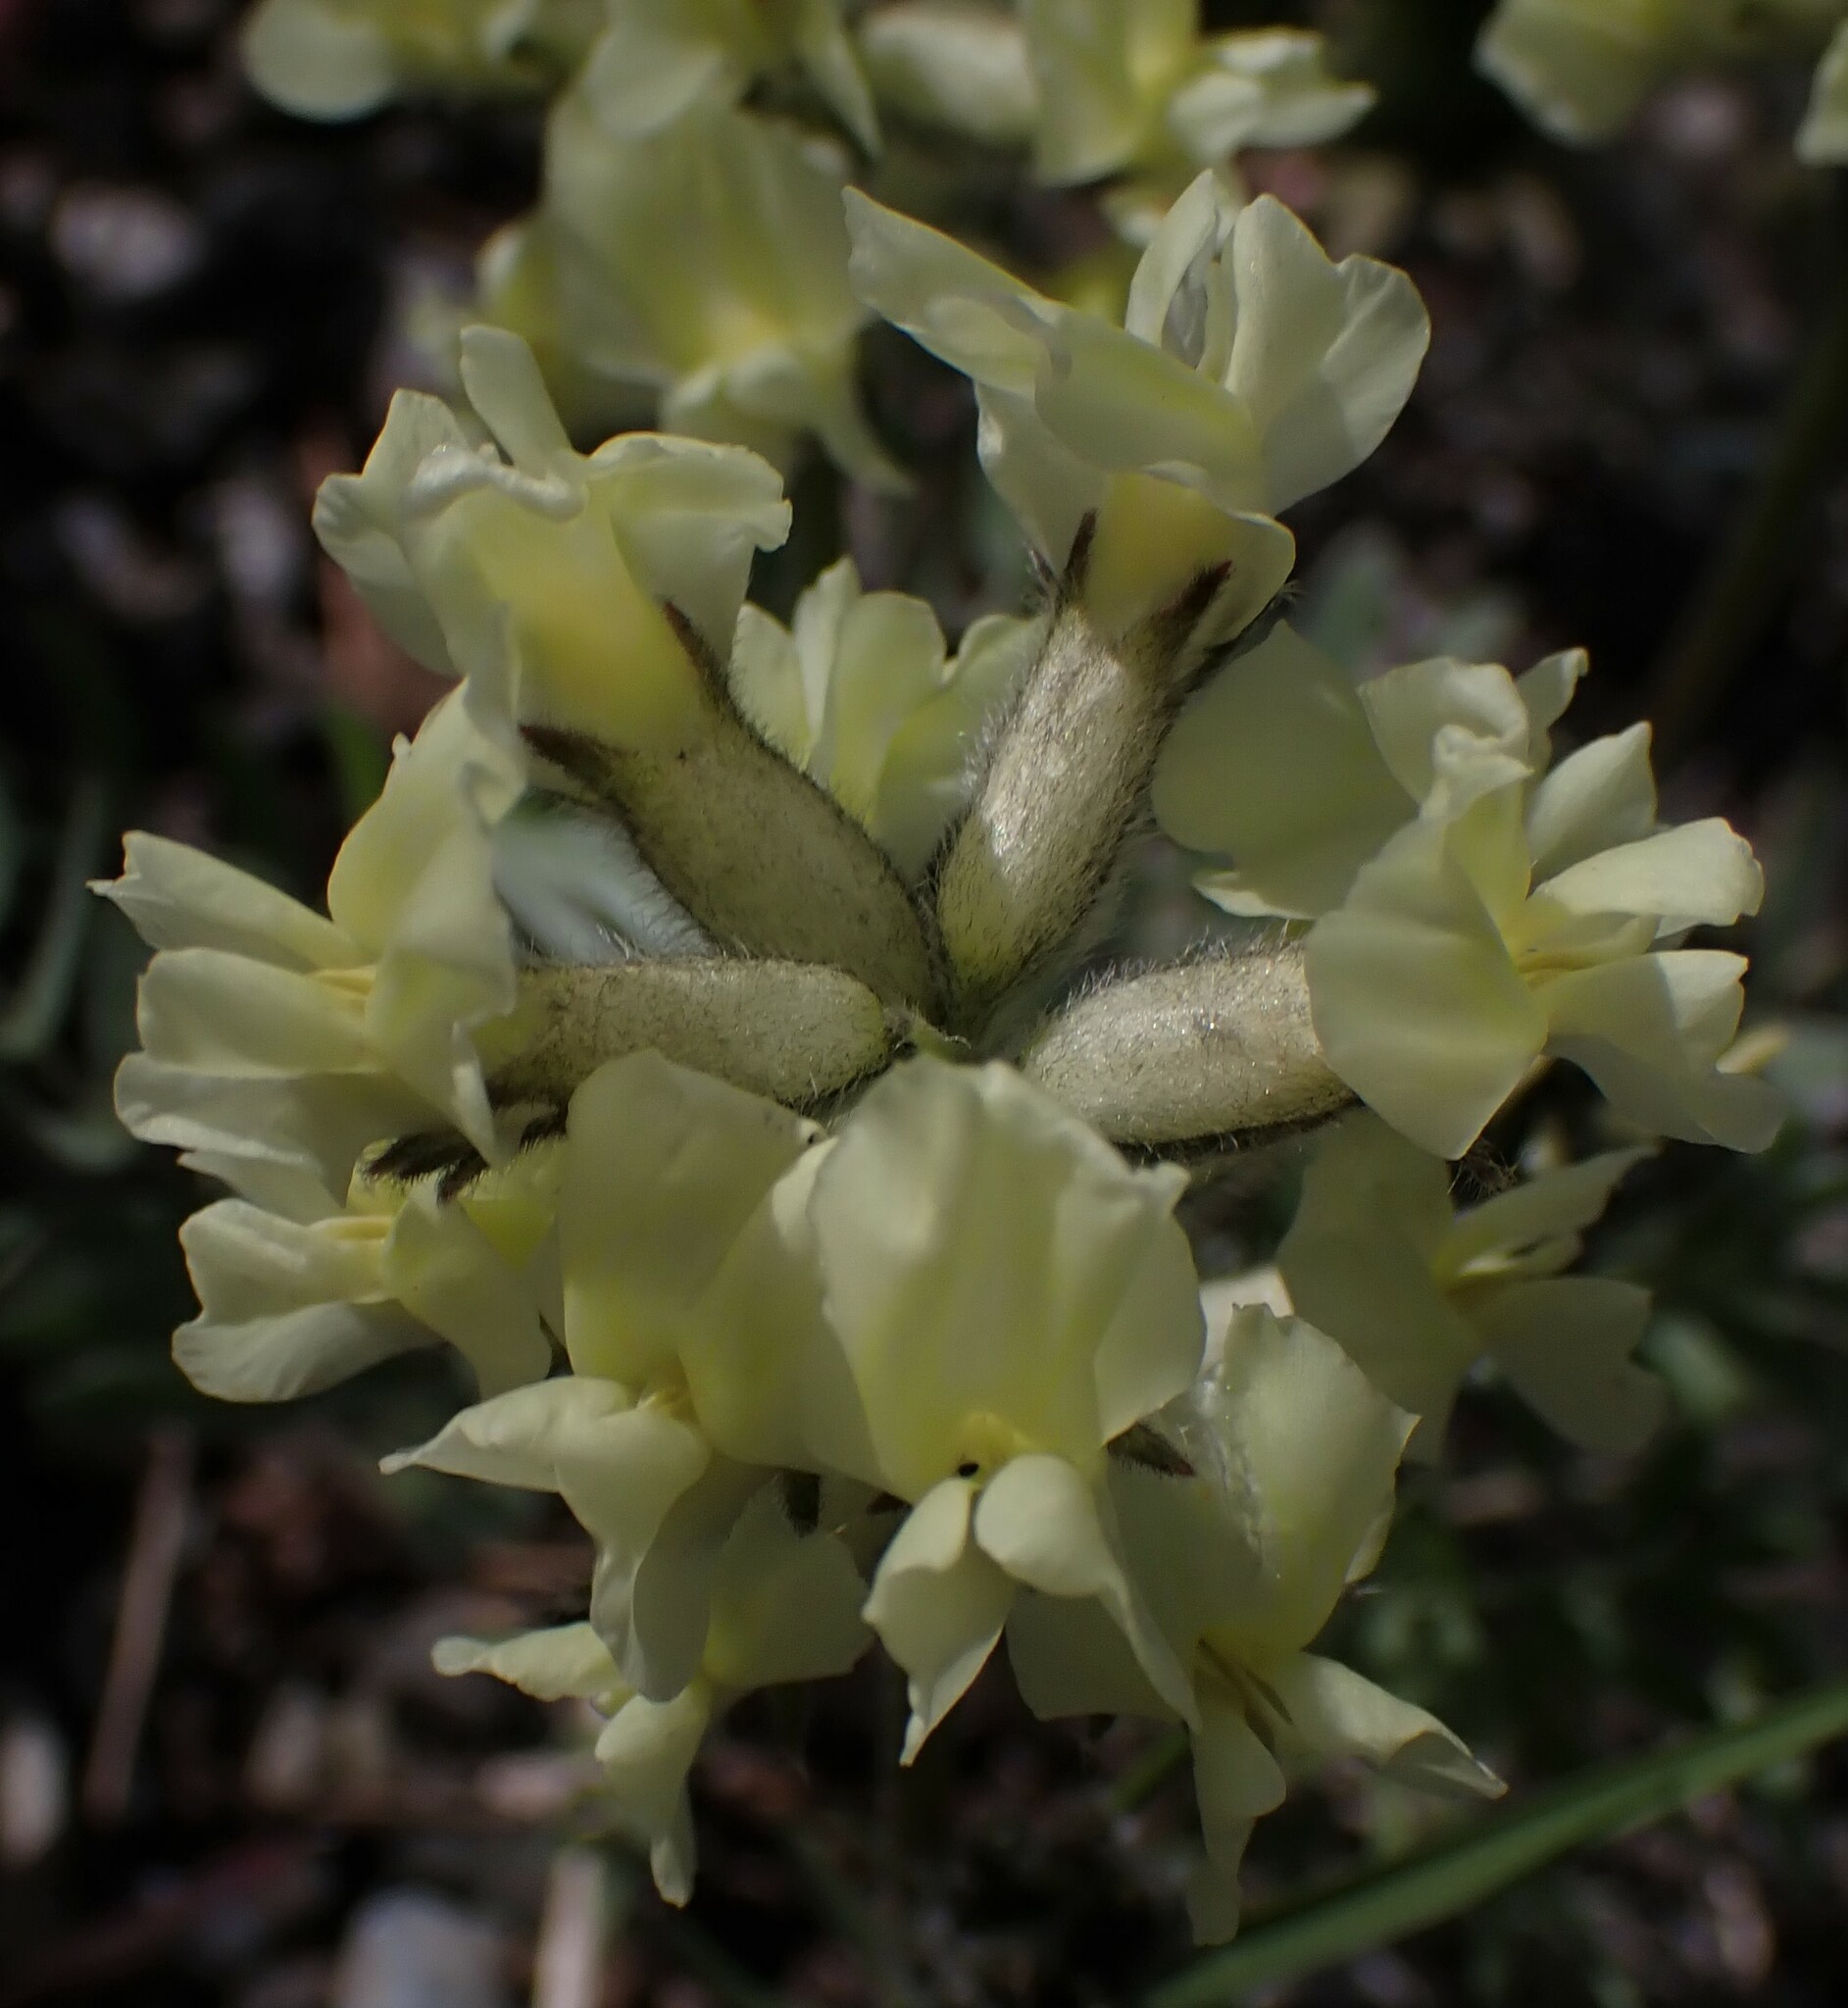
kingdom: Plantae
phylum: Tracheophyta
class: Magnoliopsida
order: Fabales
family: Fabaceae
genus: Oxytropis
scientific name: Oxytropis sericea
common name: Silky locoweed
